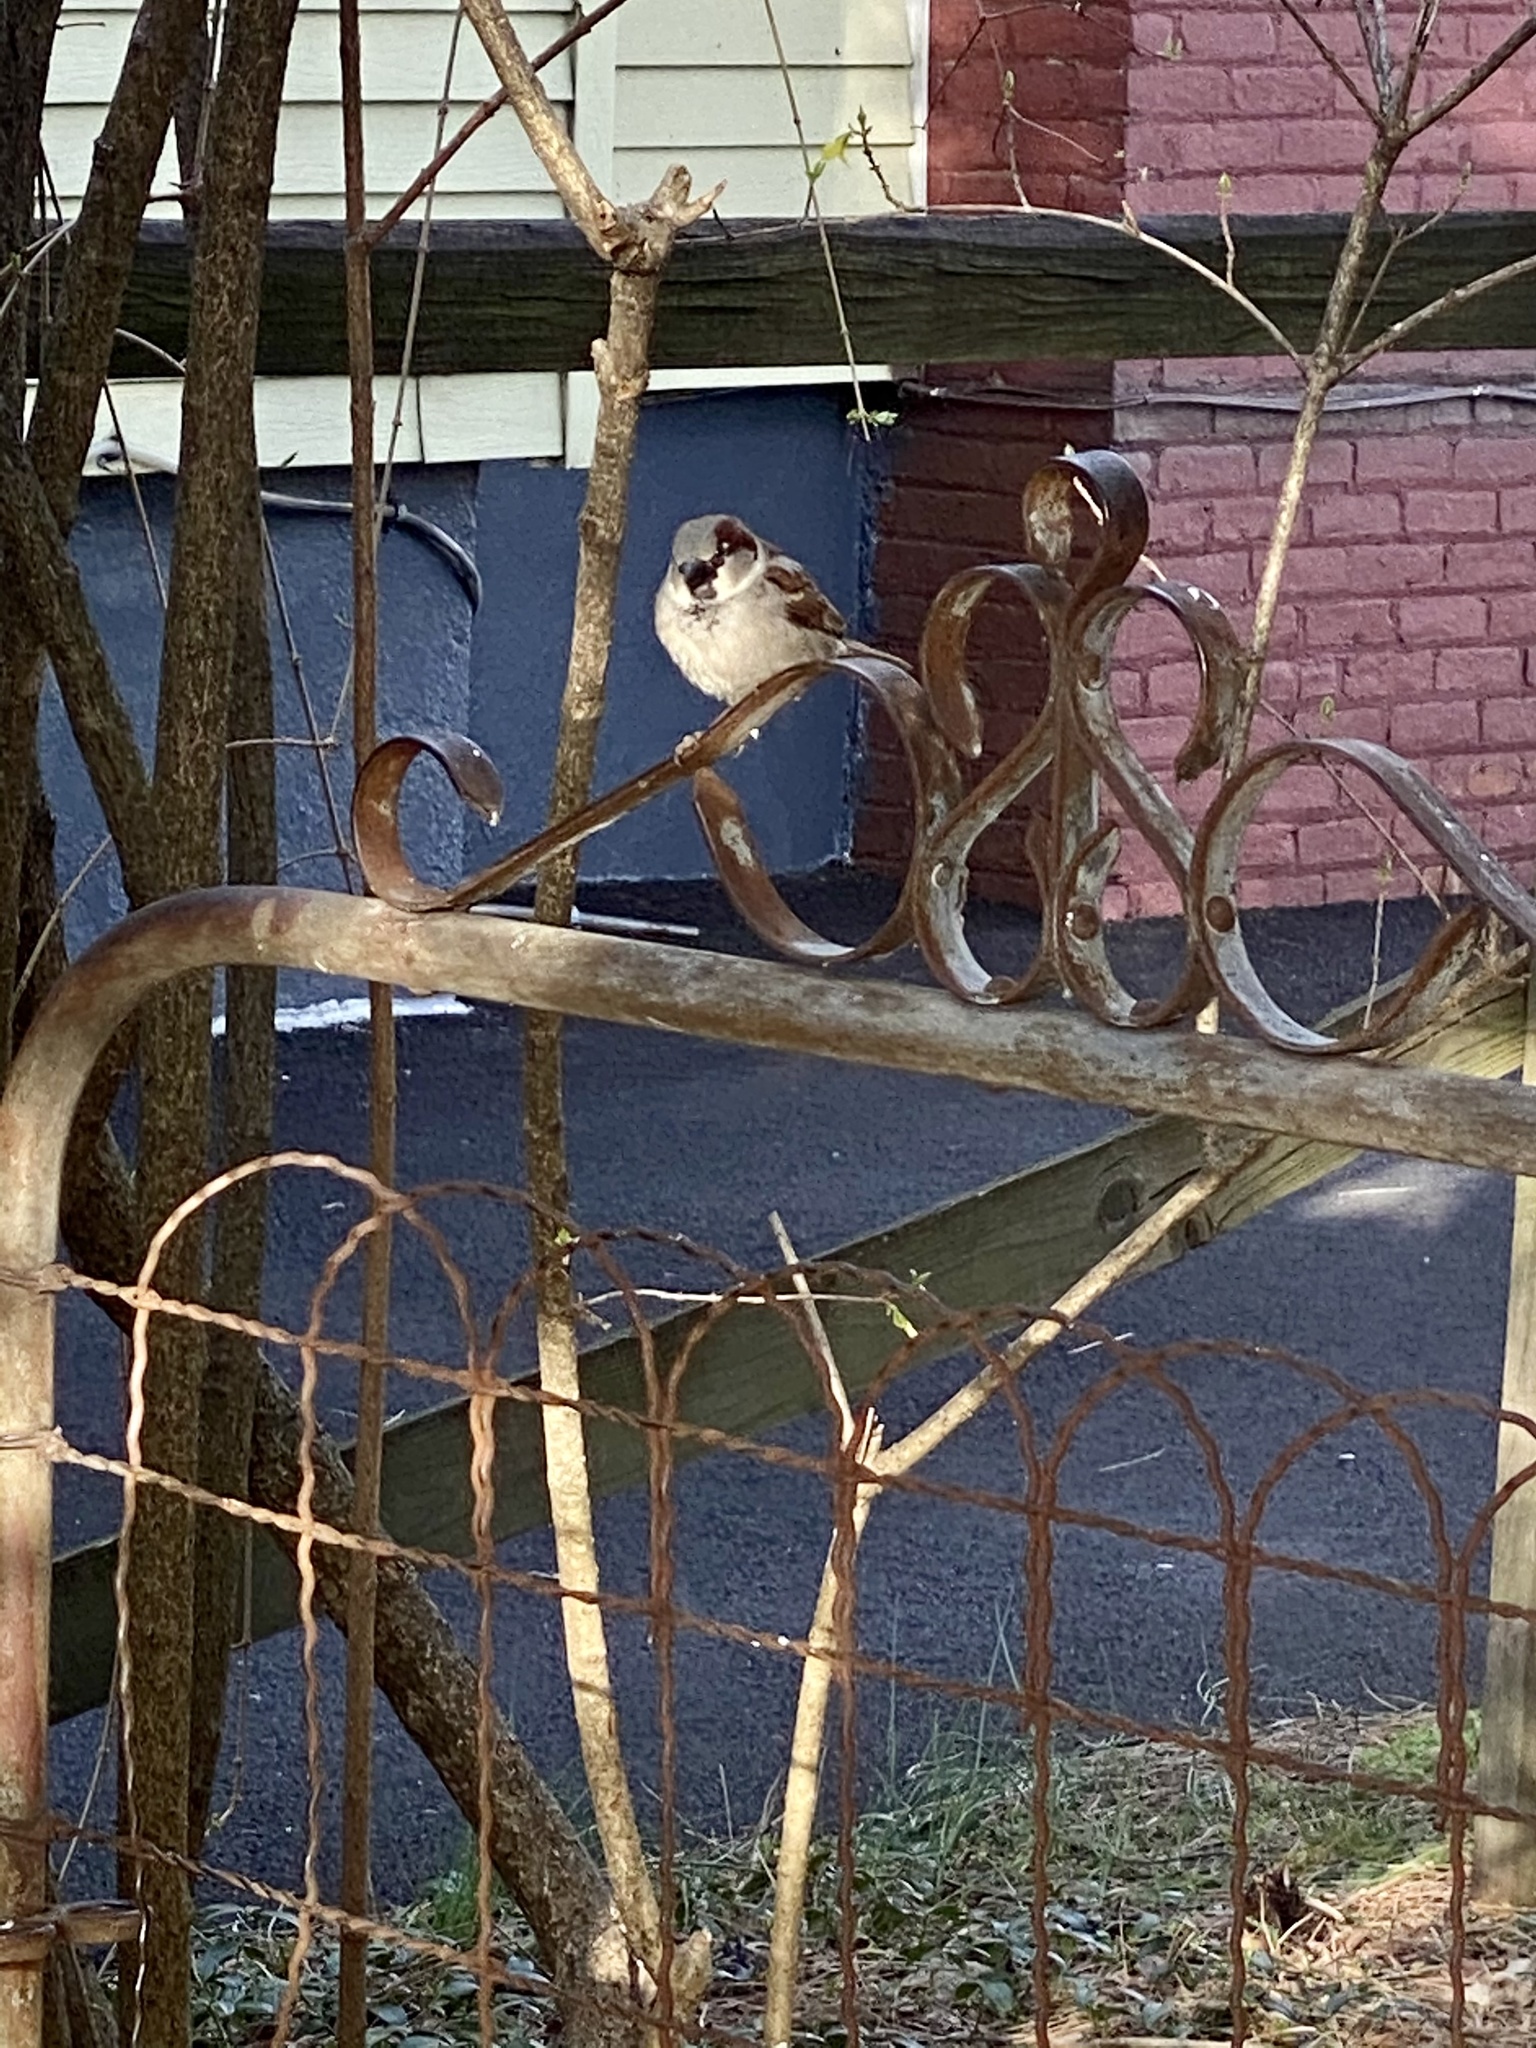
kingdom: Animalia
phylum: Chordata
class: Aves
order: Passeriformes
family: Passeridae
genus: Passer
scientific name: Passer domesticus
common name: House sparrow
